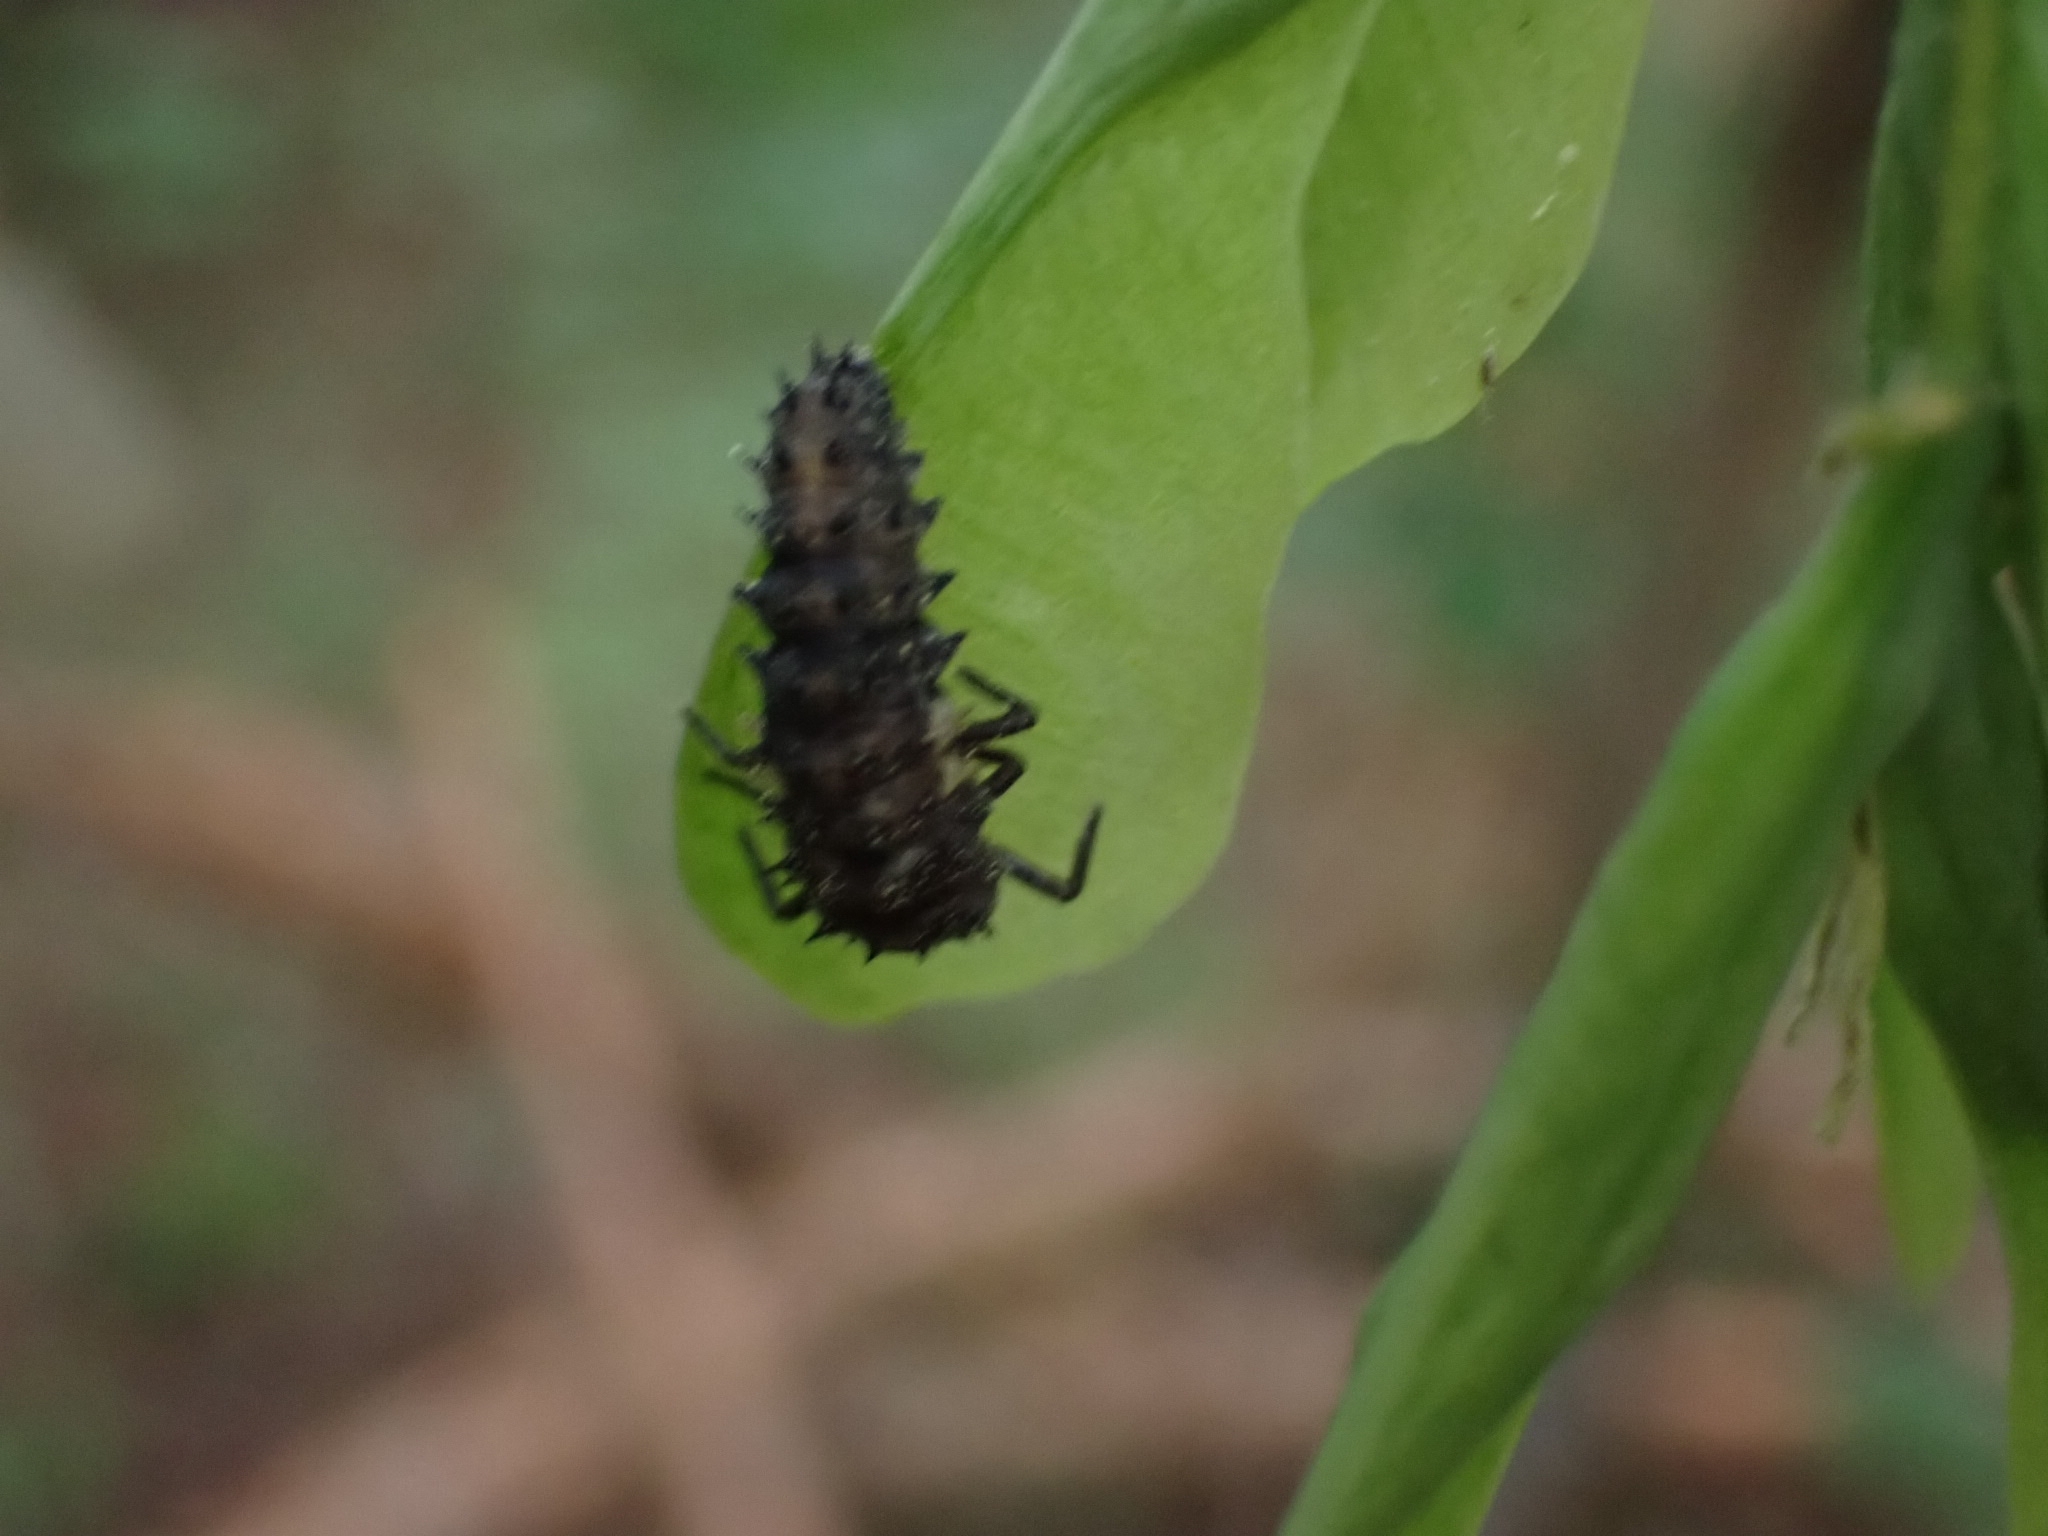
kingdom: Animalia
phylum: Arthropoda
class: Insecta
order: Coleoptera
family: Coccinellidae
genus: Anatis
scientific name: Anatis ocellata
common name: Eyed ladybird
